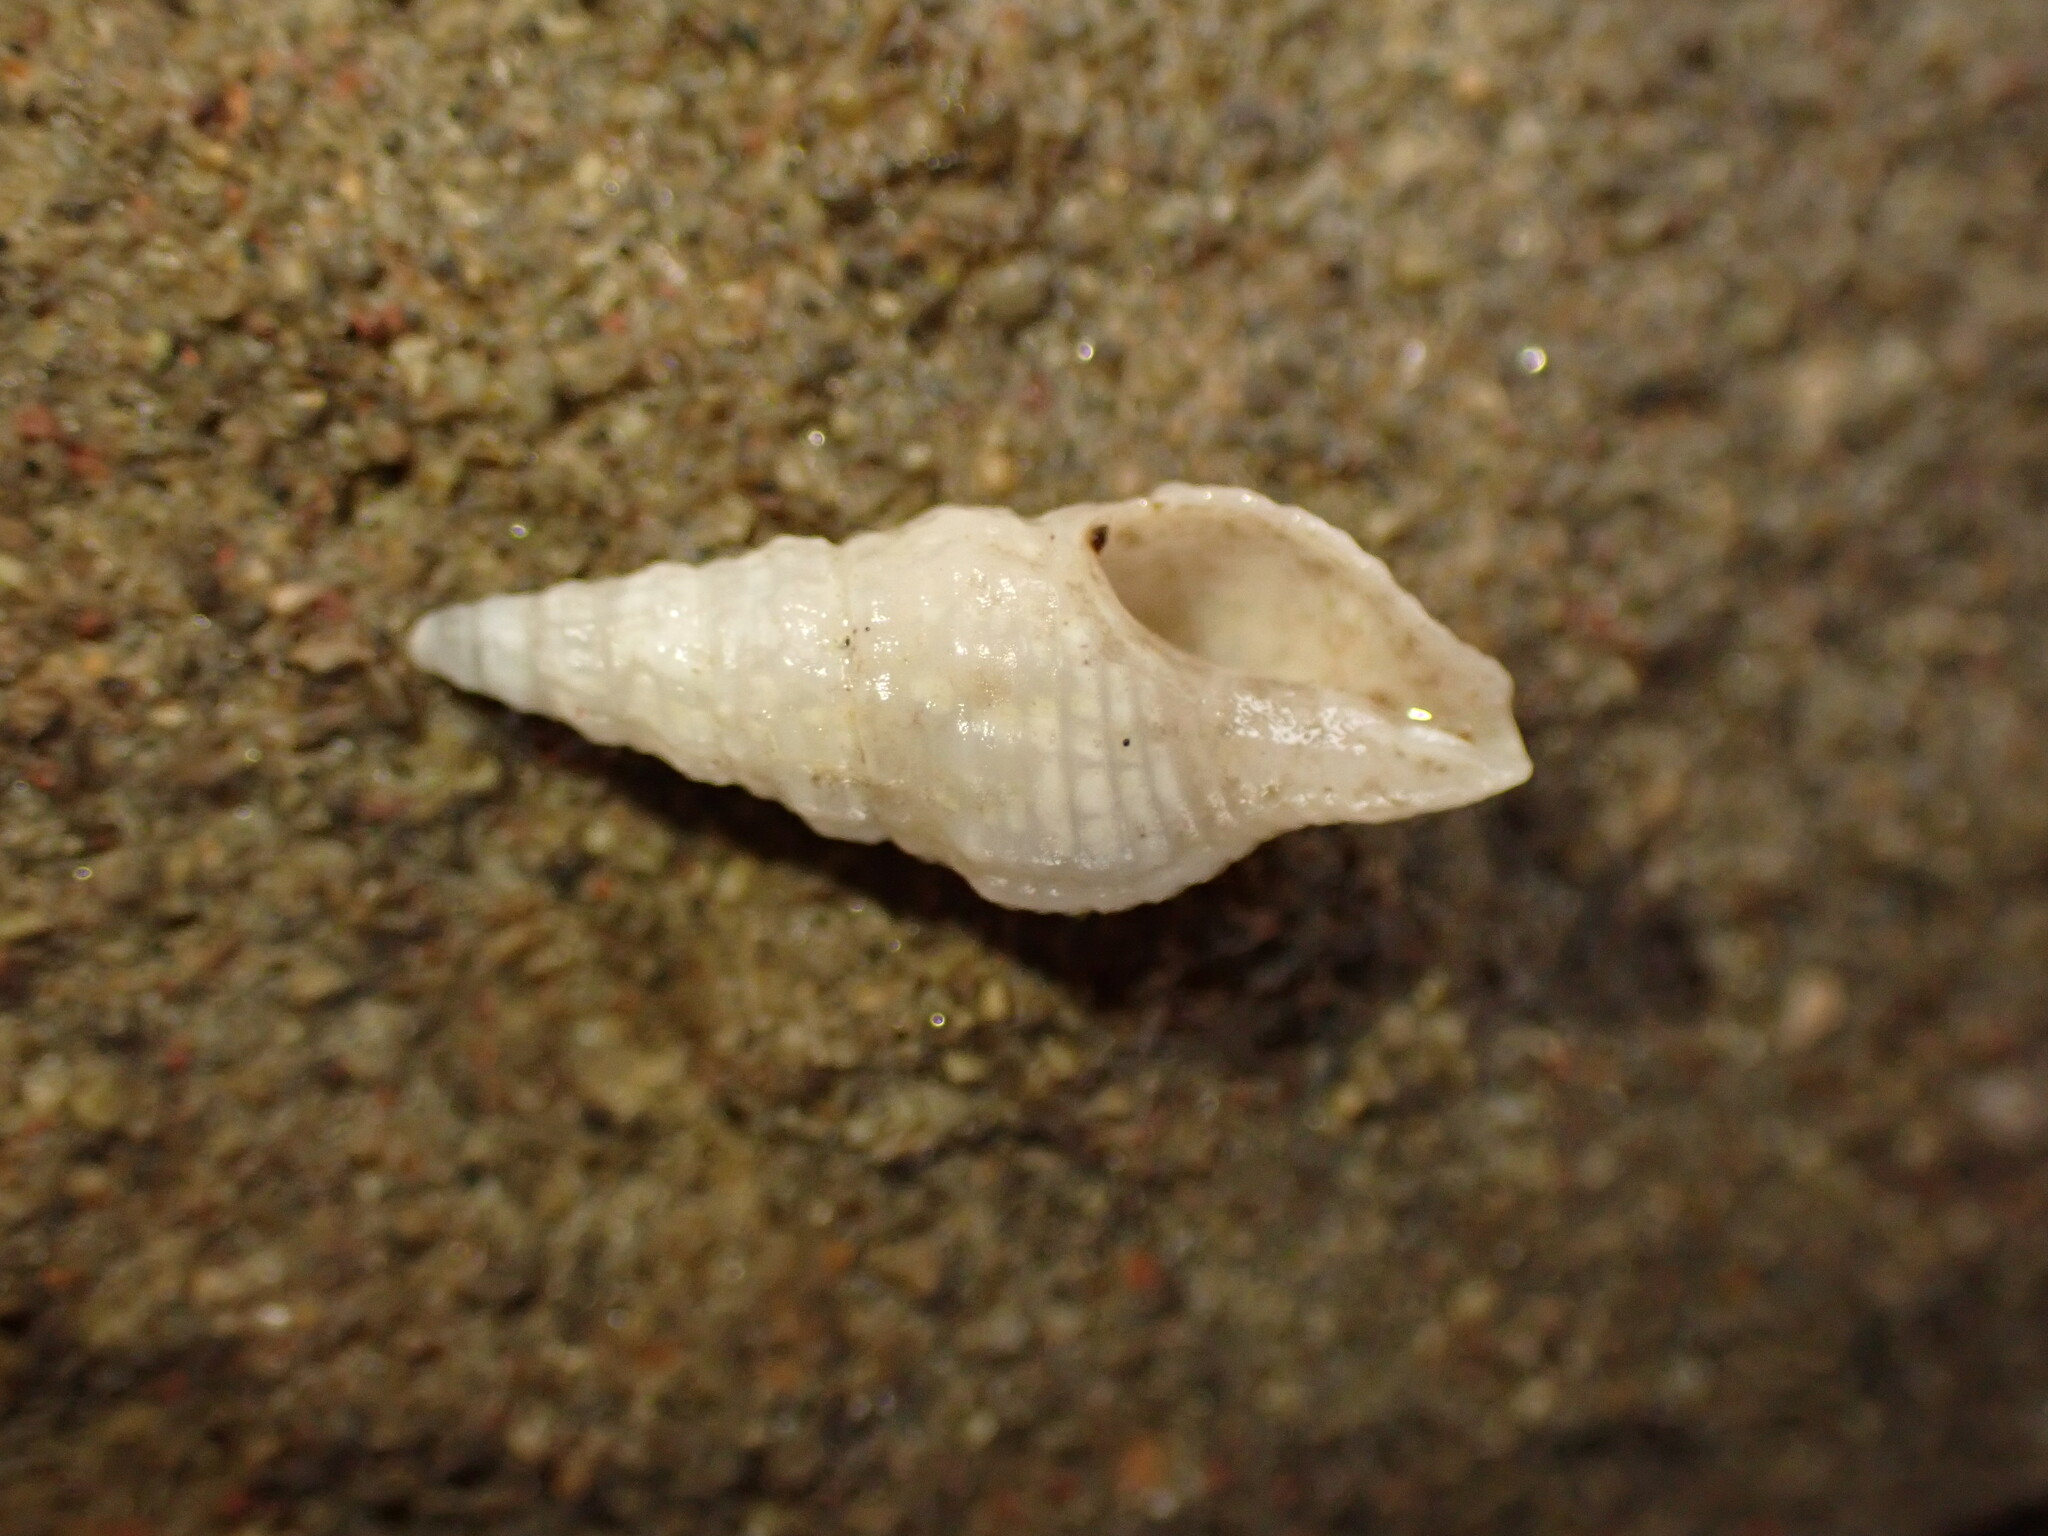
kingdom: Animalia
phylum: Mollusca
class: Gastropoda
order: Neogastropoda
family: Borsoniidae
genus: Phenatoma
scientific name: Phenatoma roseum
